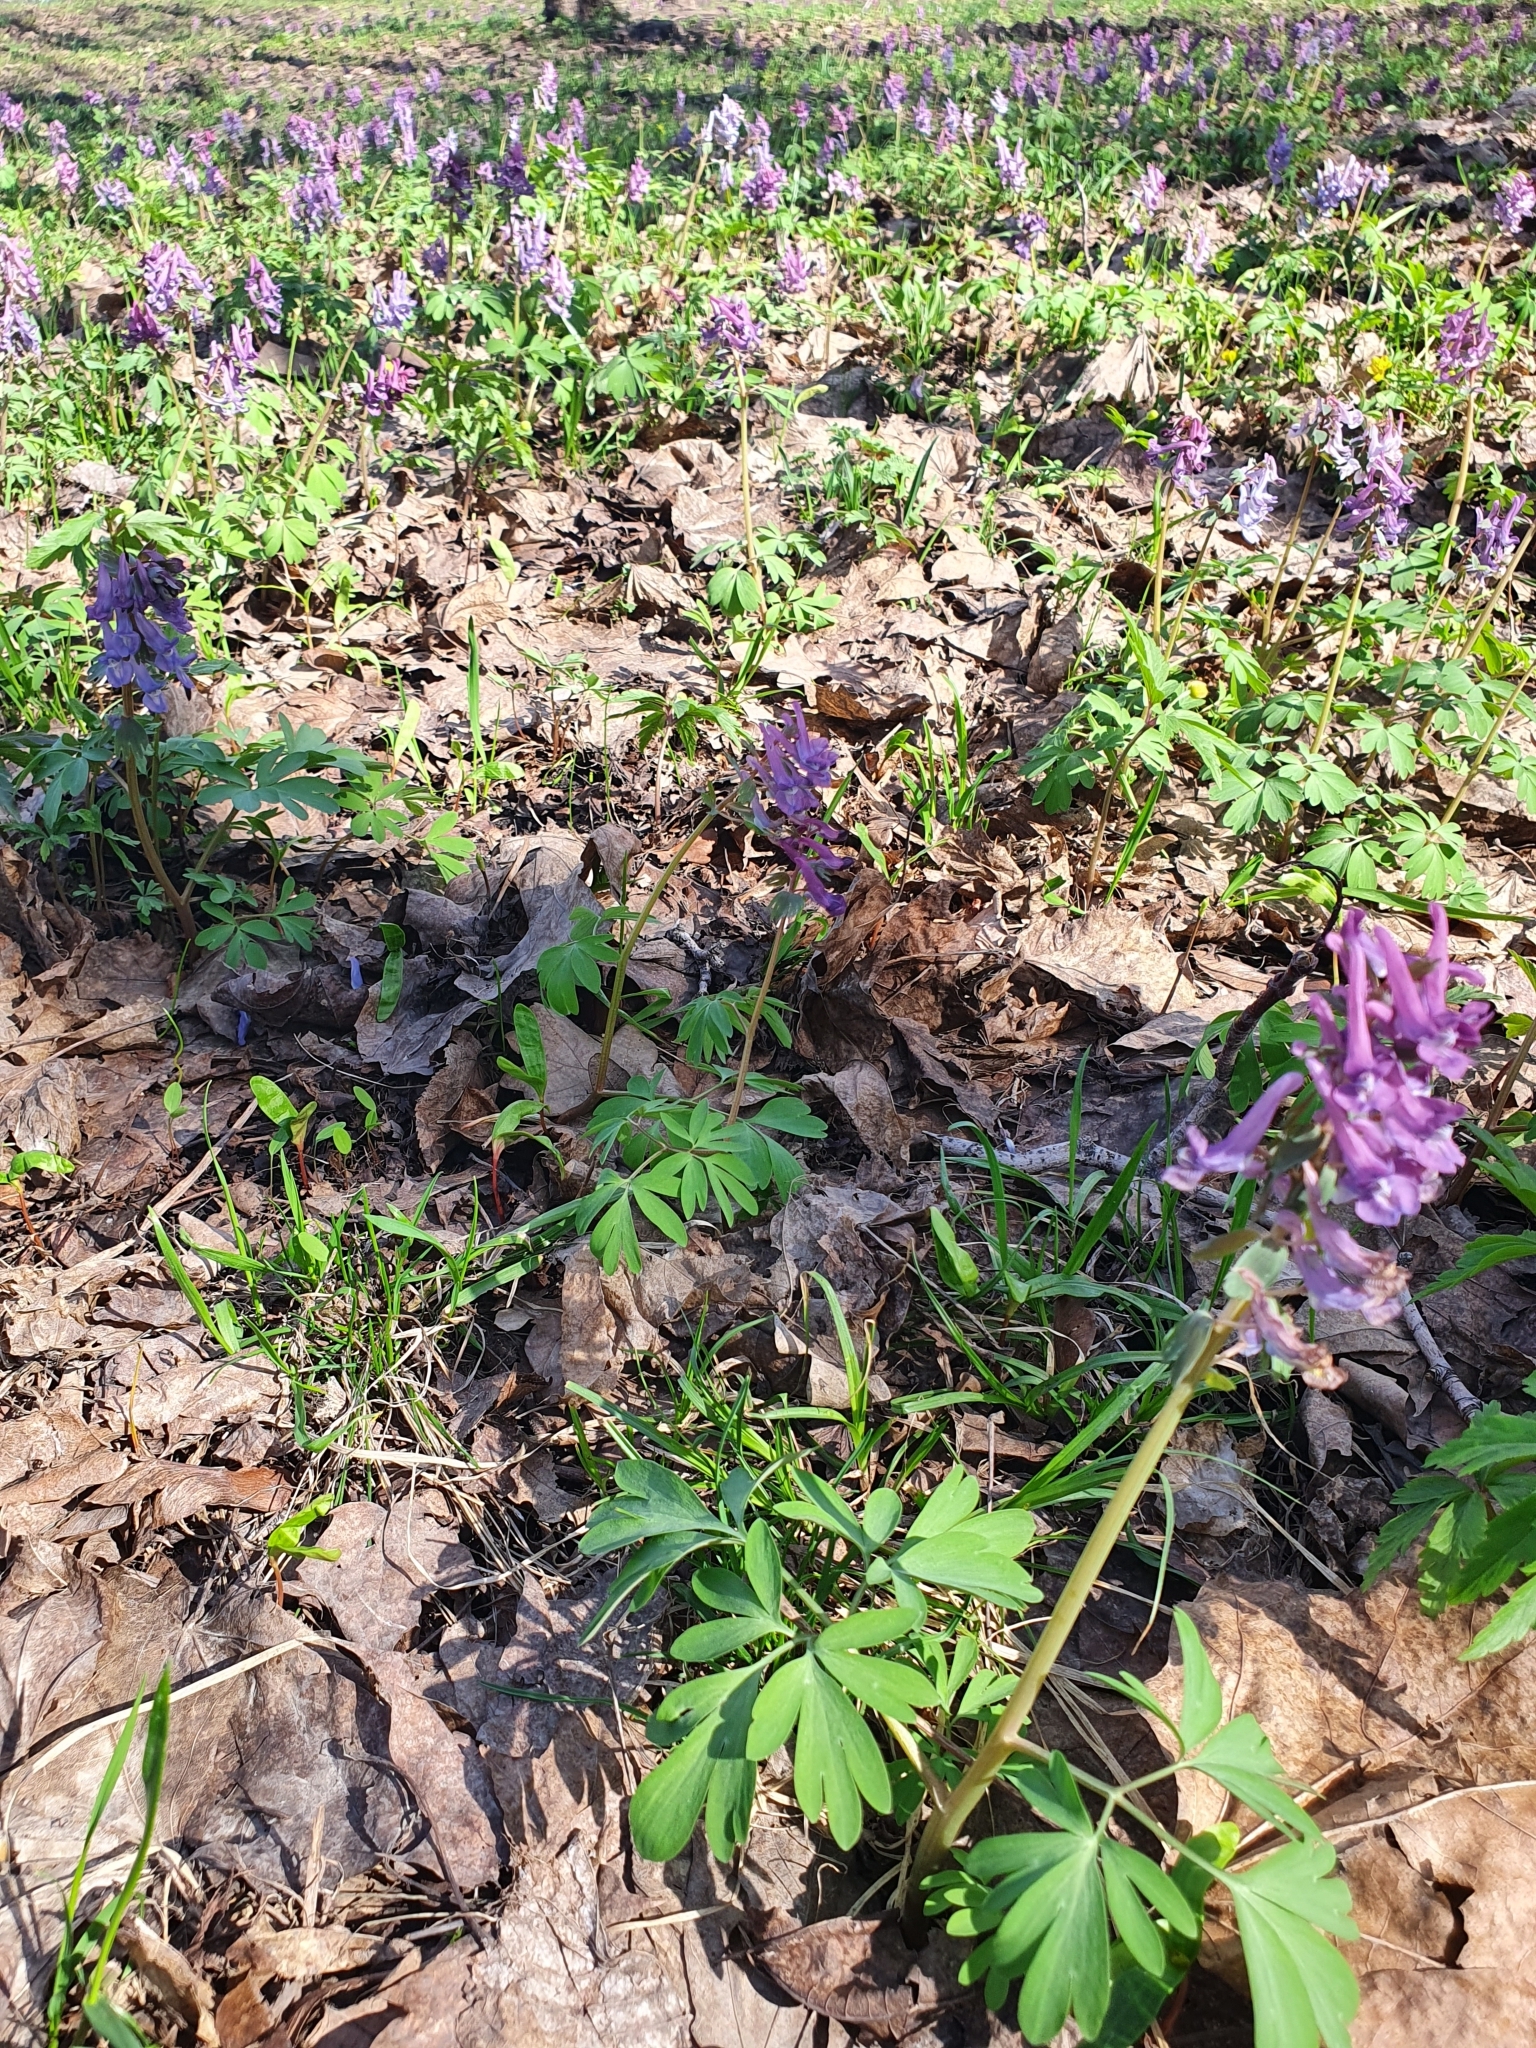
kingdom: Plantae
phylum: Tracheophyta
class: Magnoliopsida
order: Ranunculales
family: Papaveraceae
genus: Corydalis
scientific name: Corydalis solida
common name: Bird-in-a-bush
